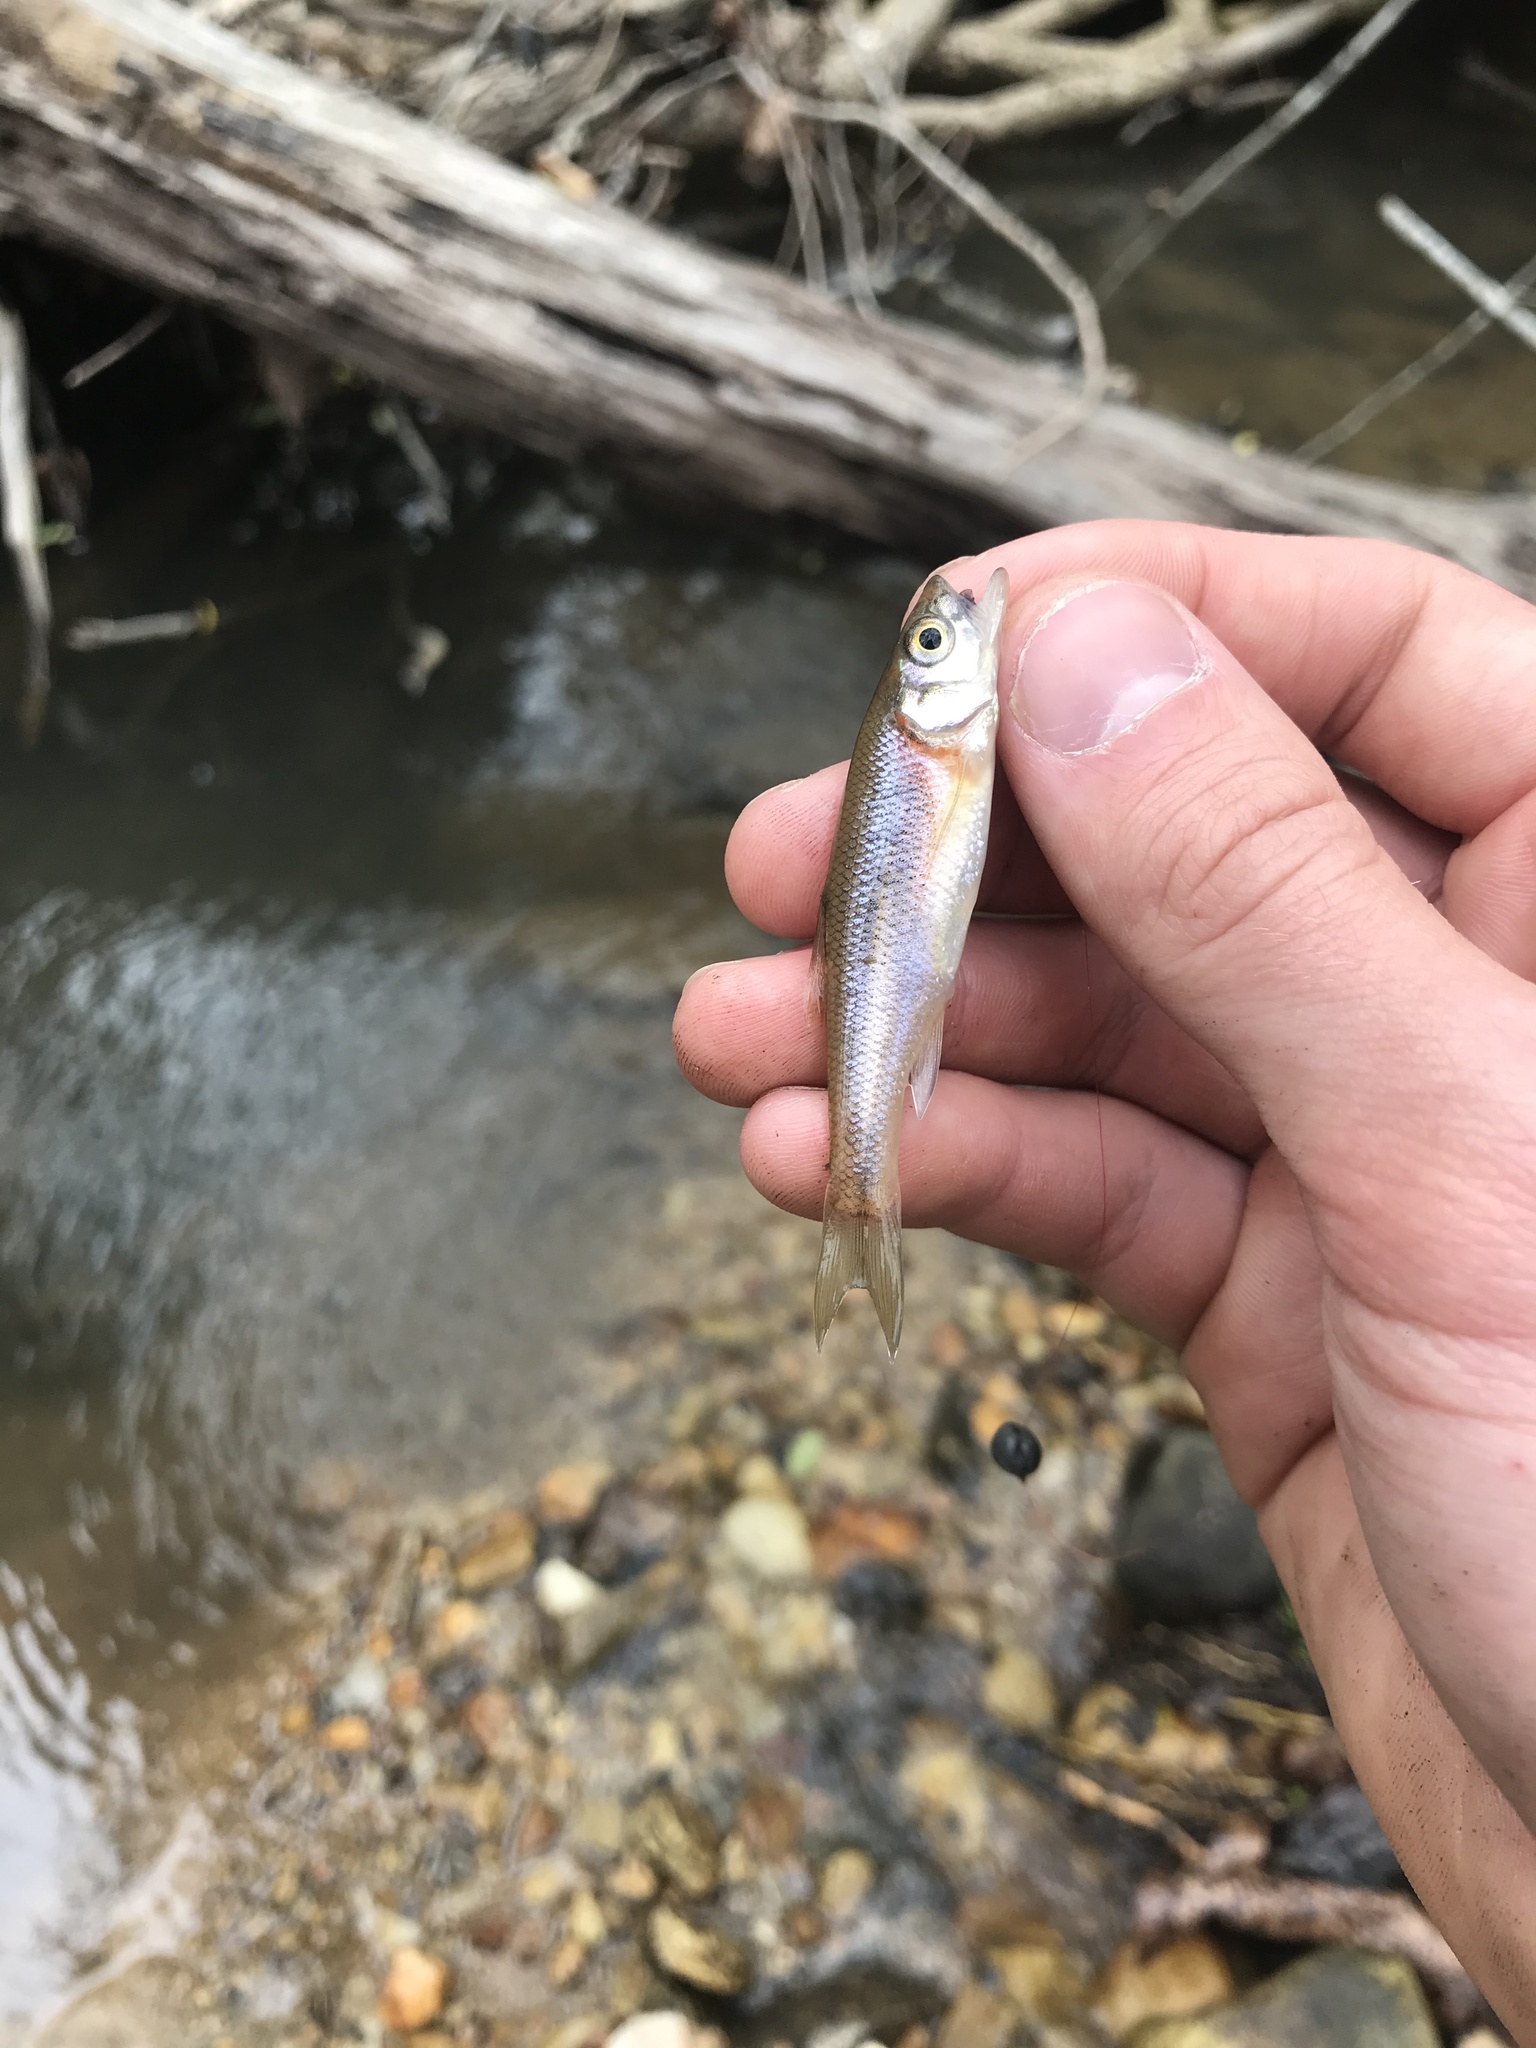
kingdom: Animalia
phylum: Chordata
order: Cypriniformes
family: Cyprinidae
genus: Clinostomus
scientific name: Clinostomus funduloides
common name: Rosyside dace
